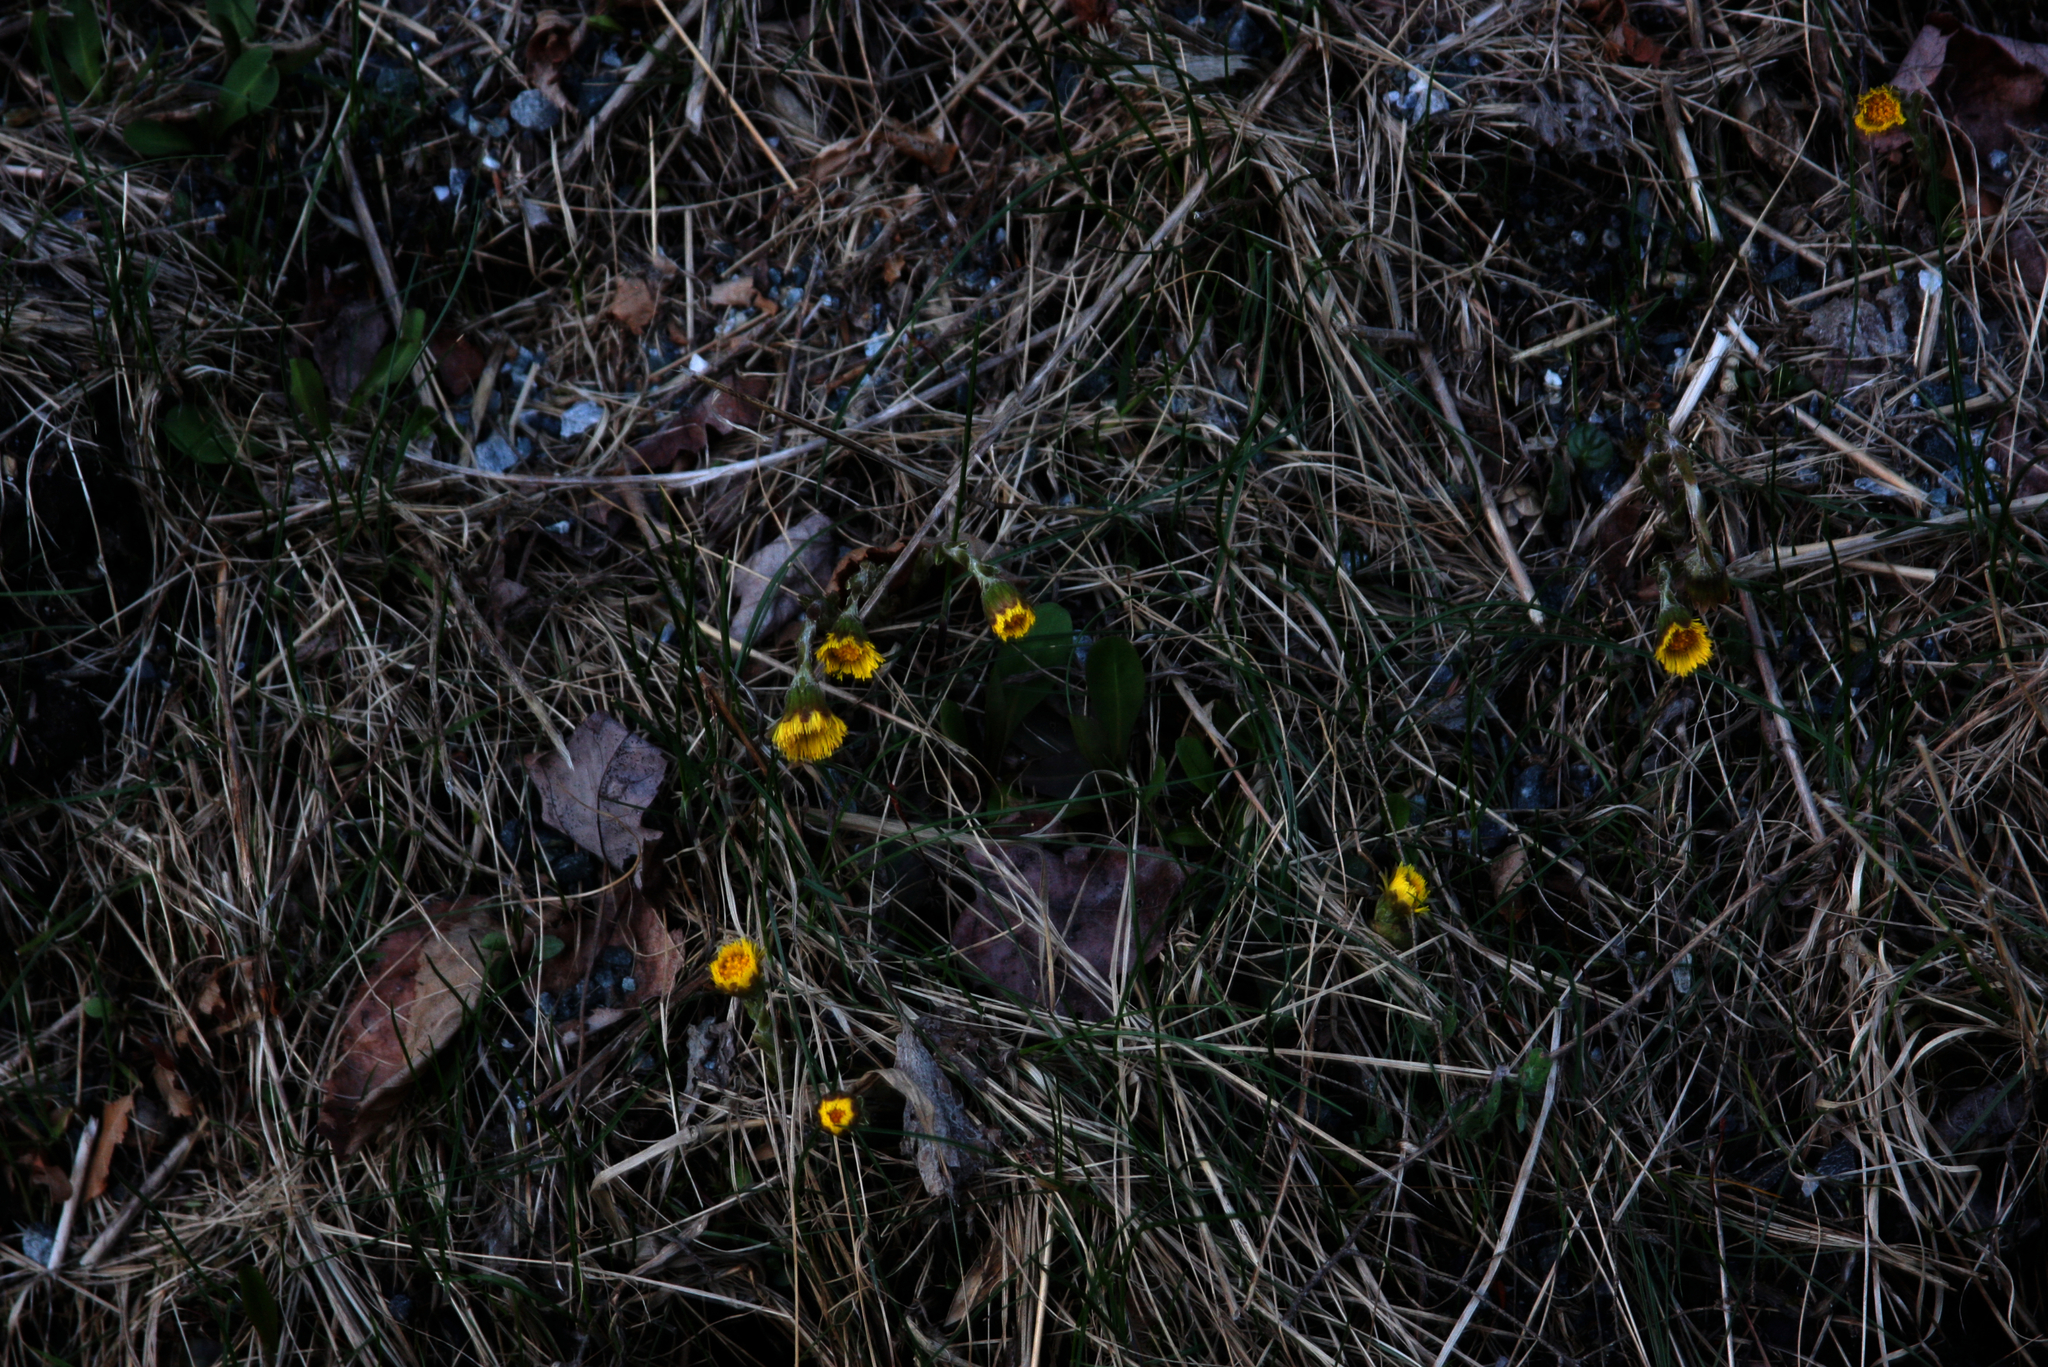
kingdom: Plantae
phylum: Tracheophyta
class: Magnoliopsida
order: Asterales
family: Asteraceae
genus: Tussilago
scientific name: Tussilago farfara
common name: Coltsfoot
